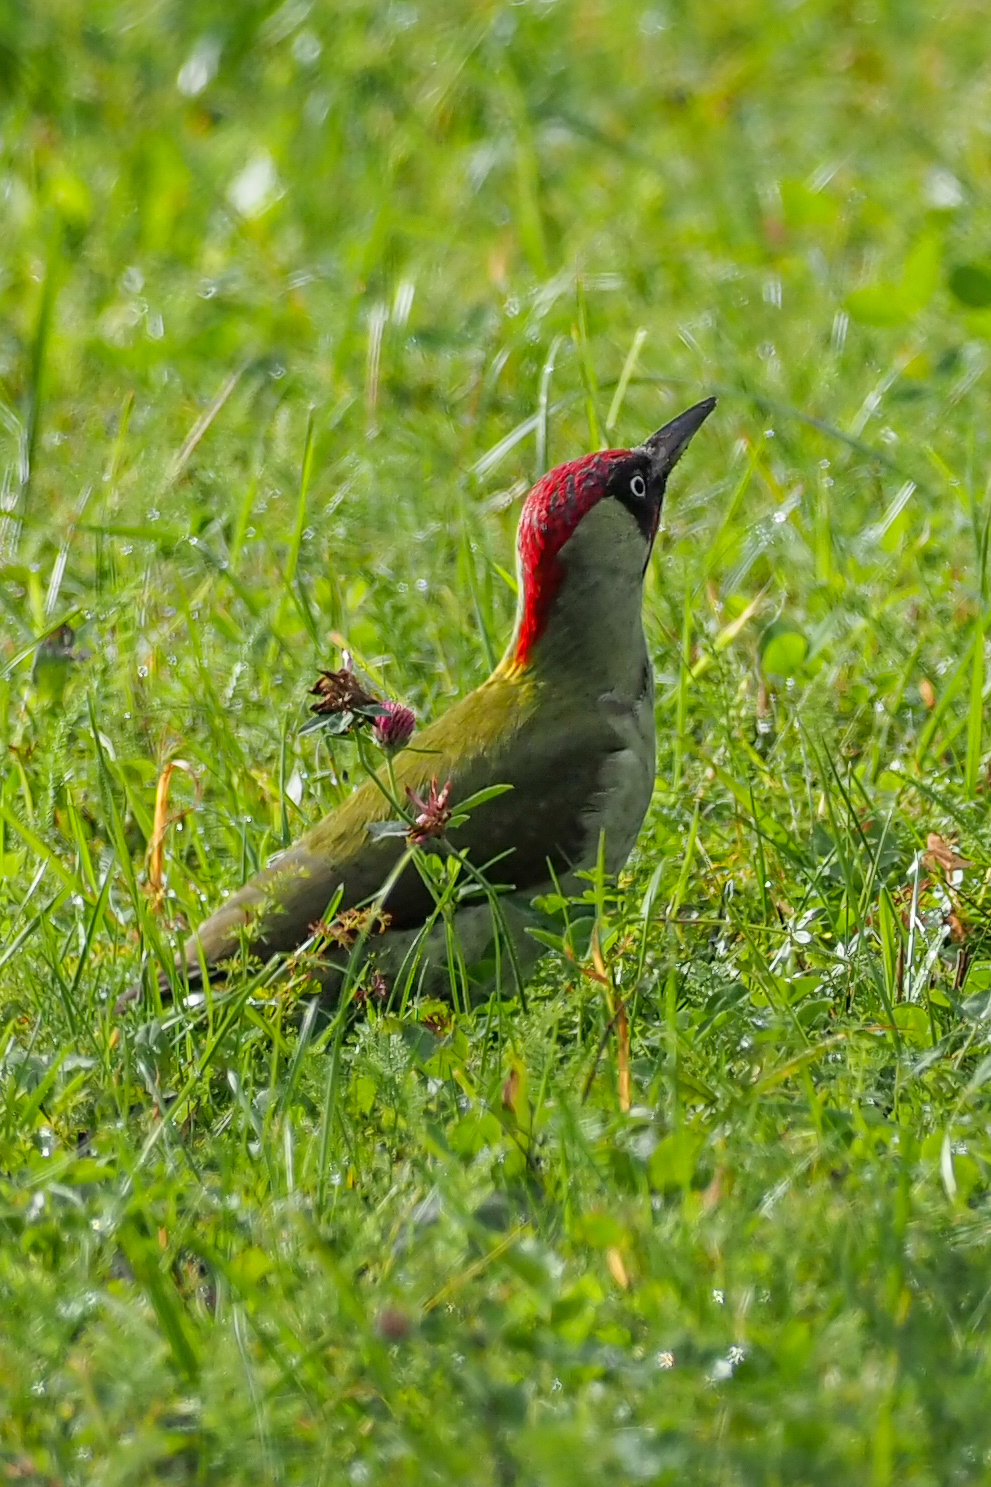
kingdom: Animalia
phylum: Chordata
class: Aves
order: Piciformes
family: Picidae
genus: Picus
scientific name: Picus viridis
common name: European green woodpecker
